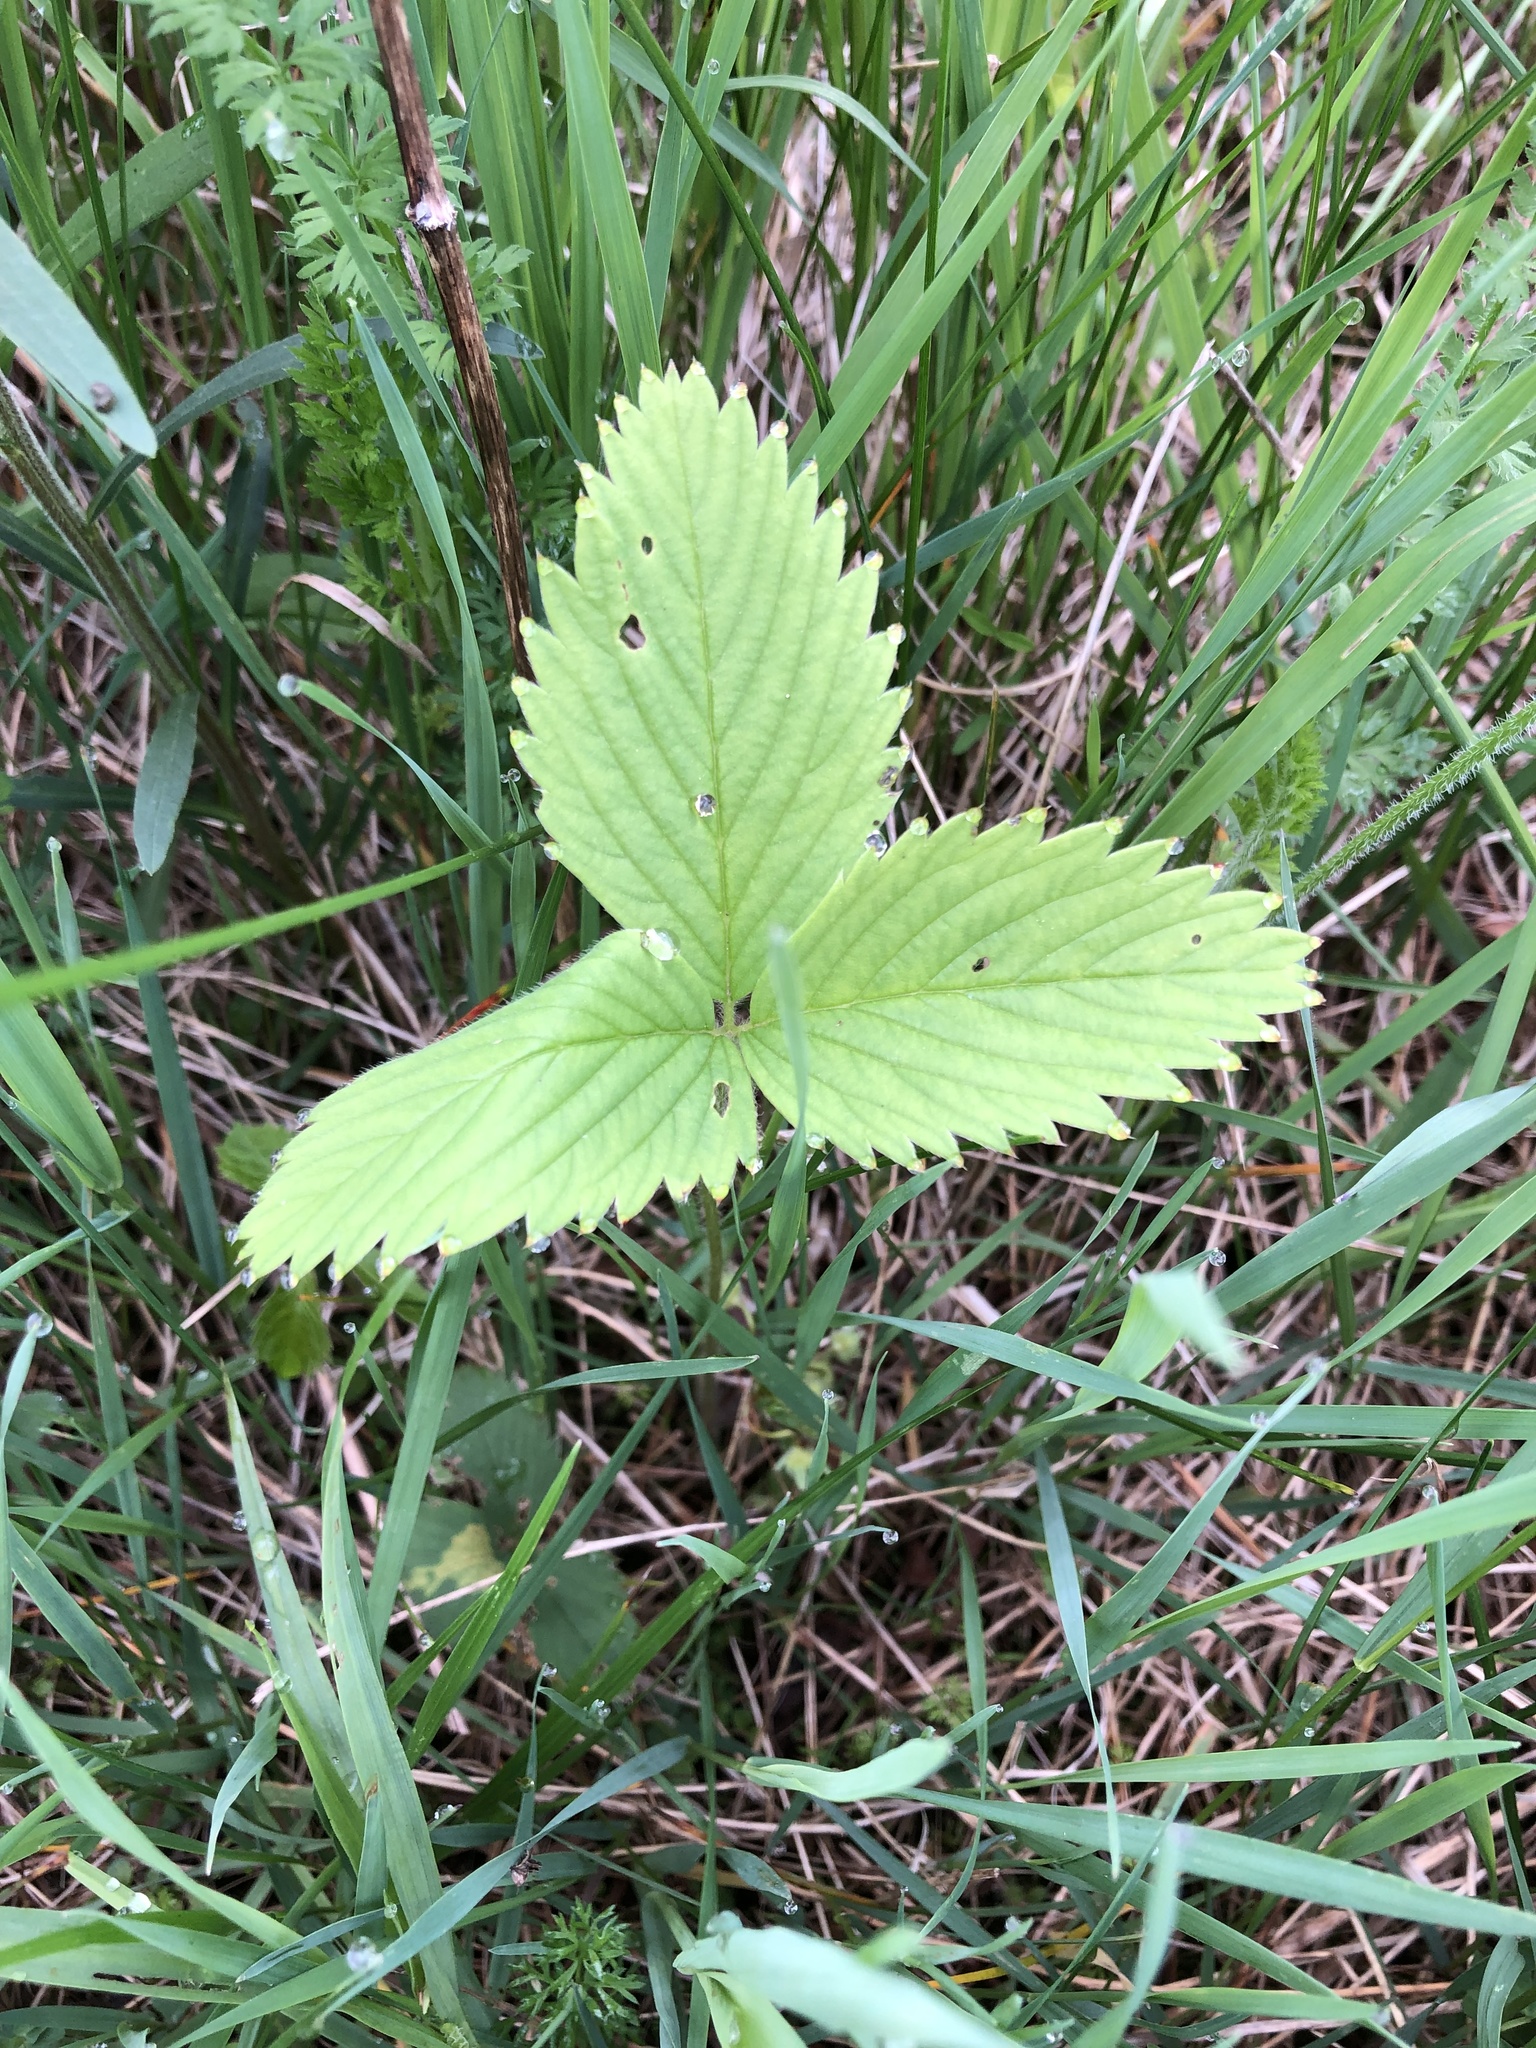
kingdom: Plantae
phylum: Tracheophyta
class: Magnoliopsida
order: Rosales
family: Rosaceae
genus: Fragaria
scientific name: Fragaria virginiana
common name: Thickleaved wild strawberry
